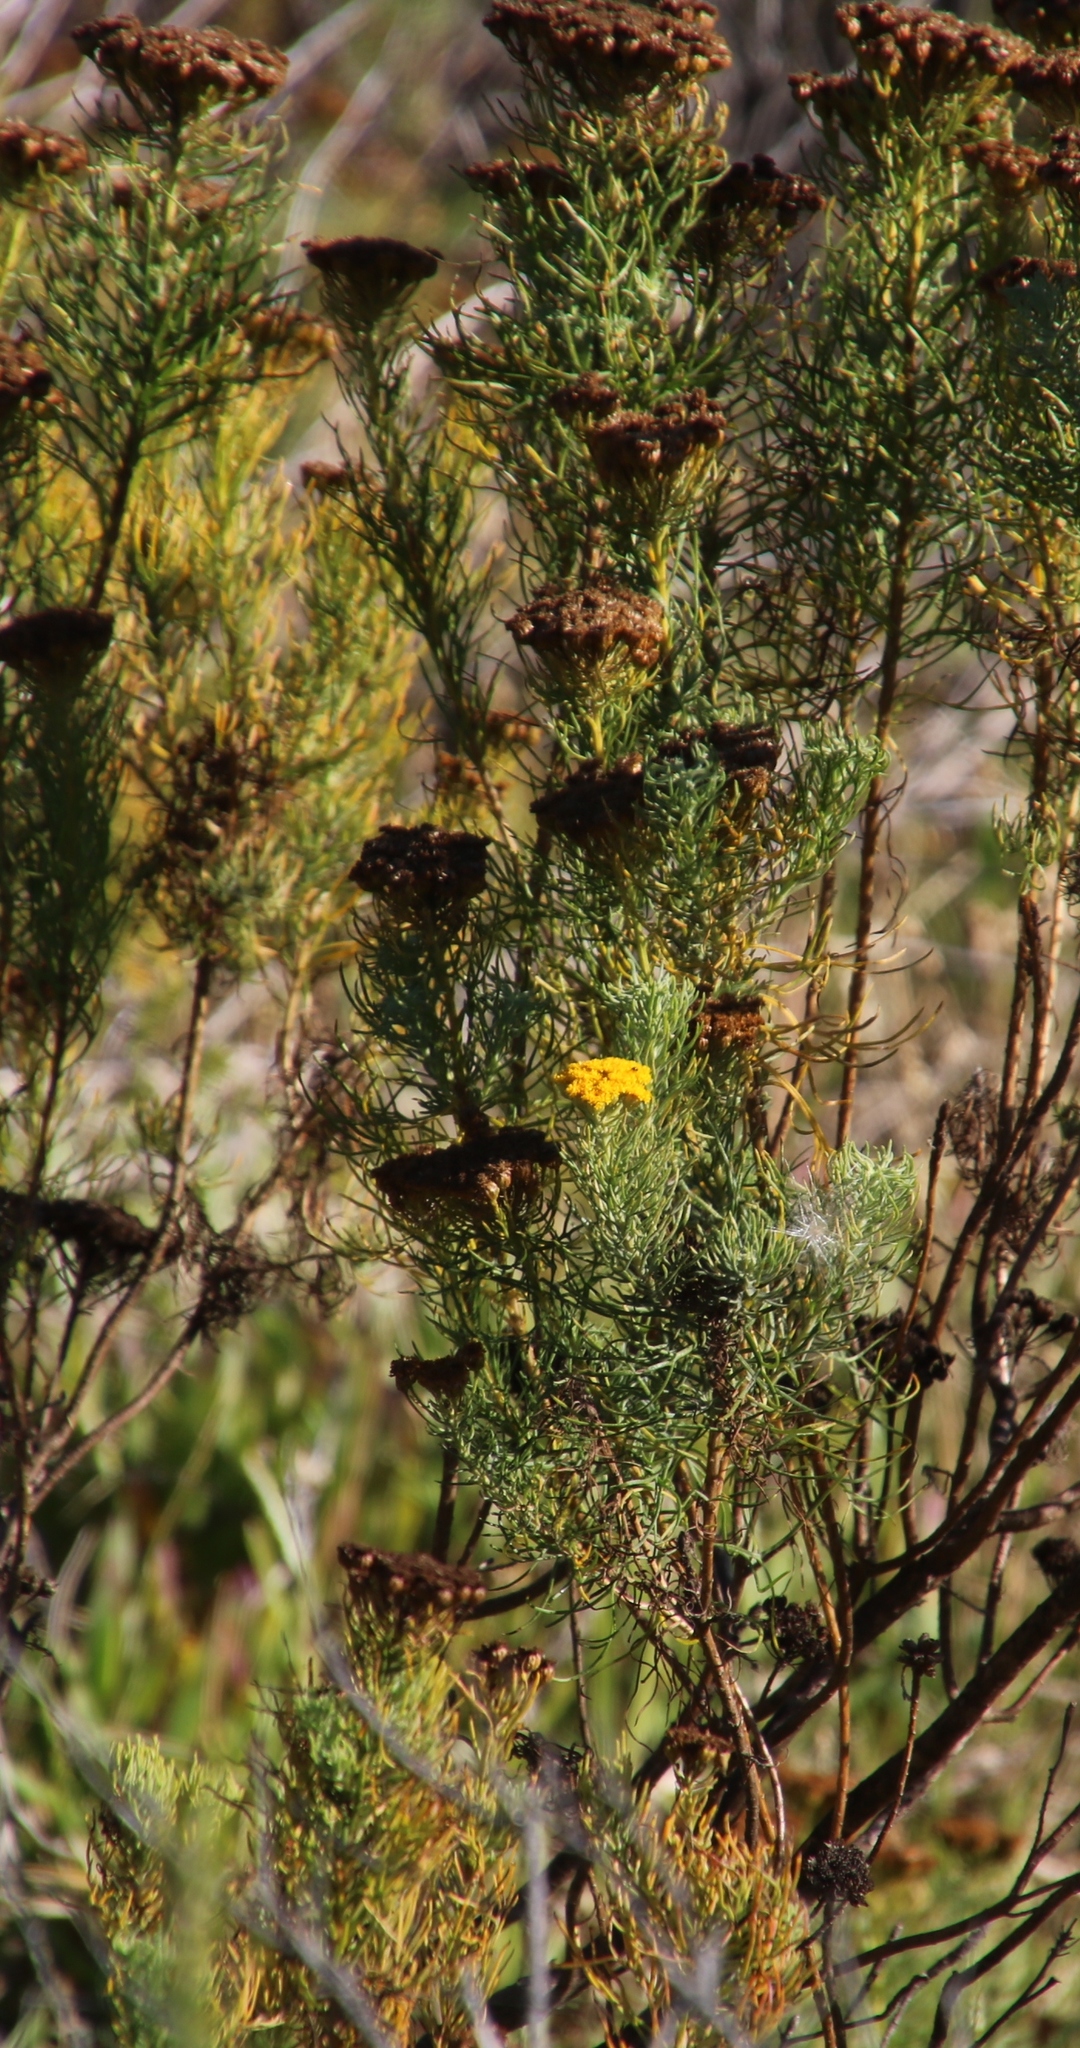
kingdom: Plantae
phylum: Tracheophyta
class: Magnoliopsida
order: Asterales
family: Asteraceae
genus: Hymenolepis
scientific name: Hymenolepis crithmifolia
